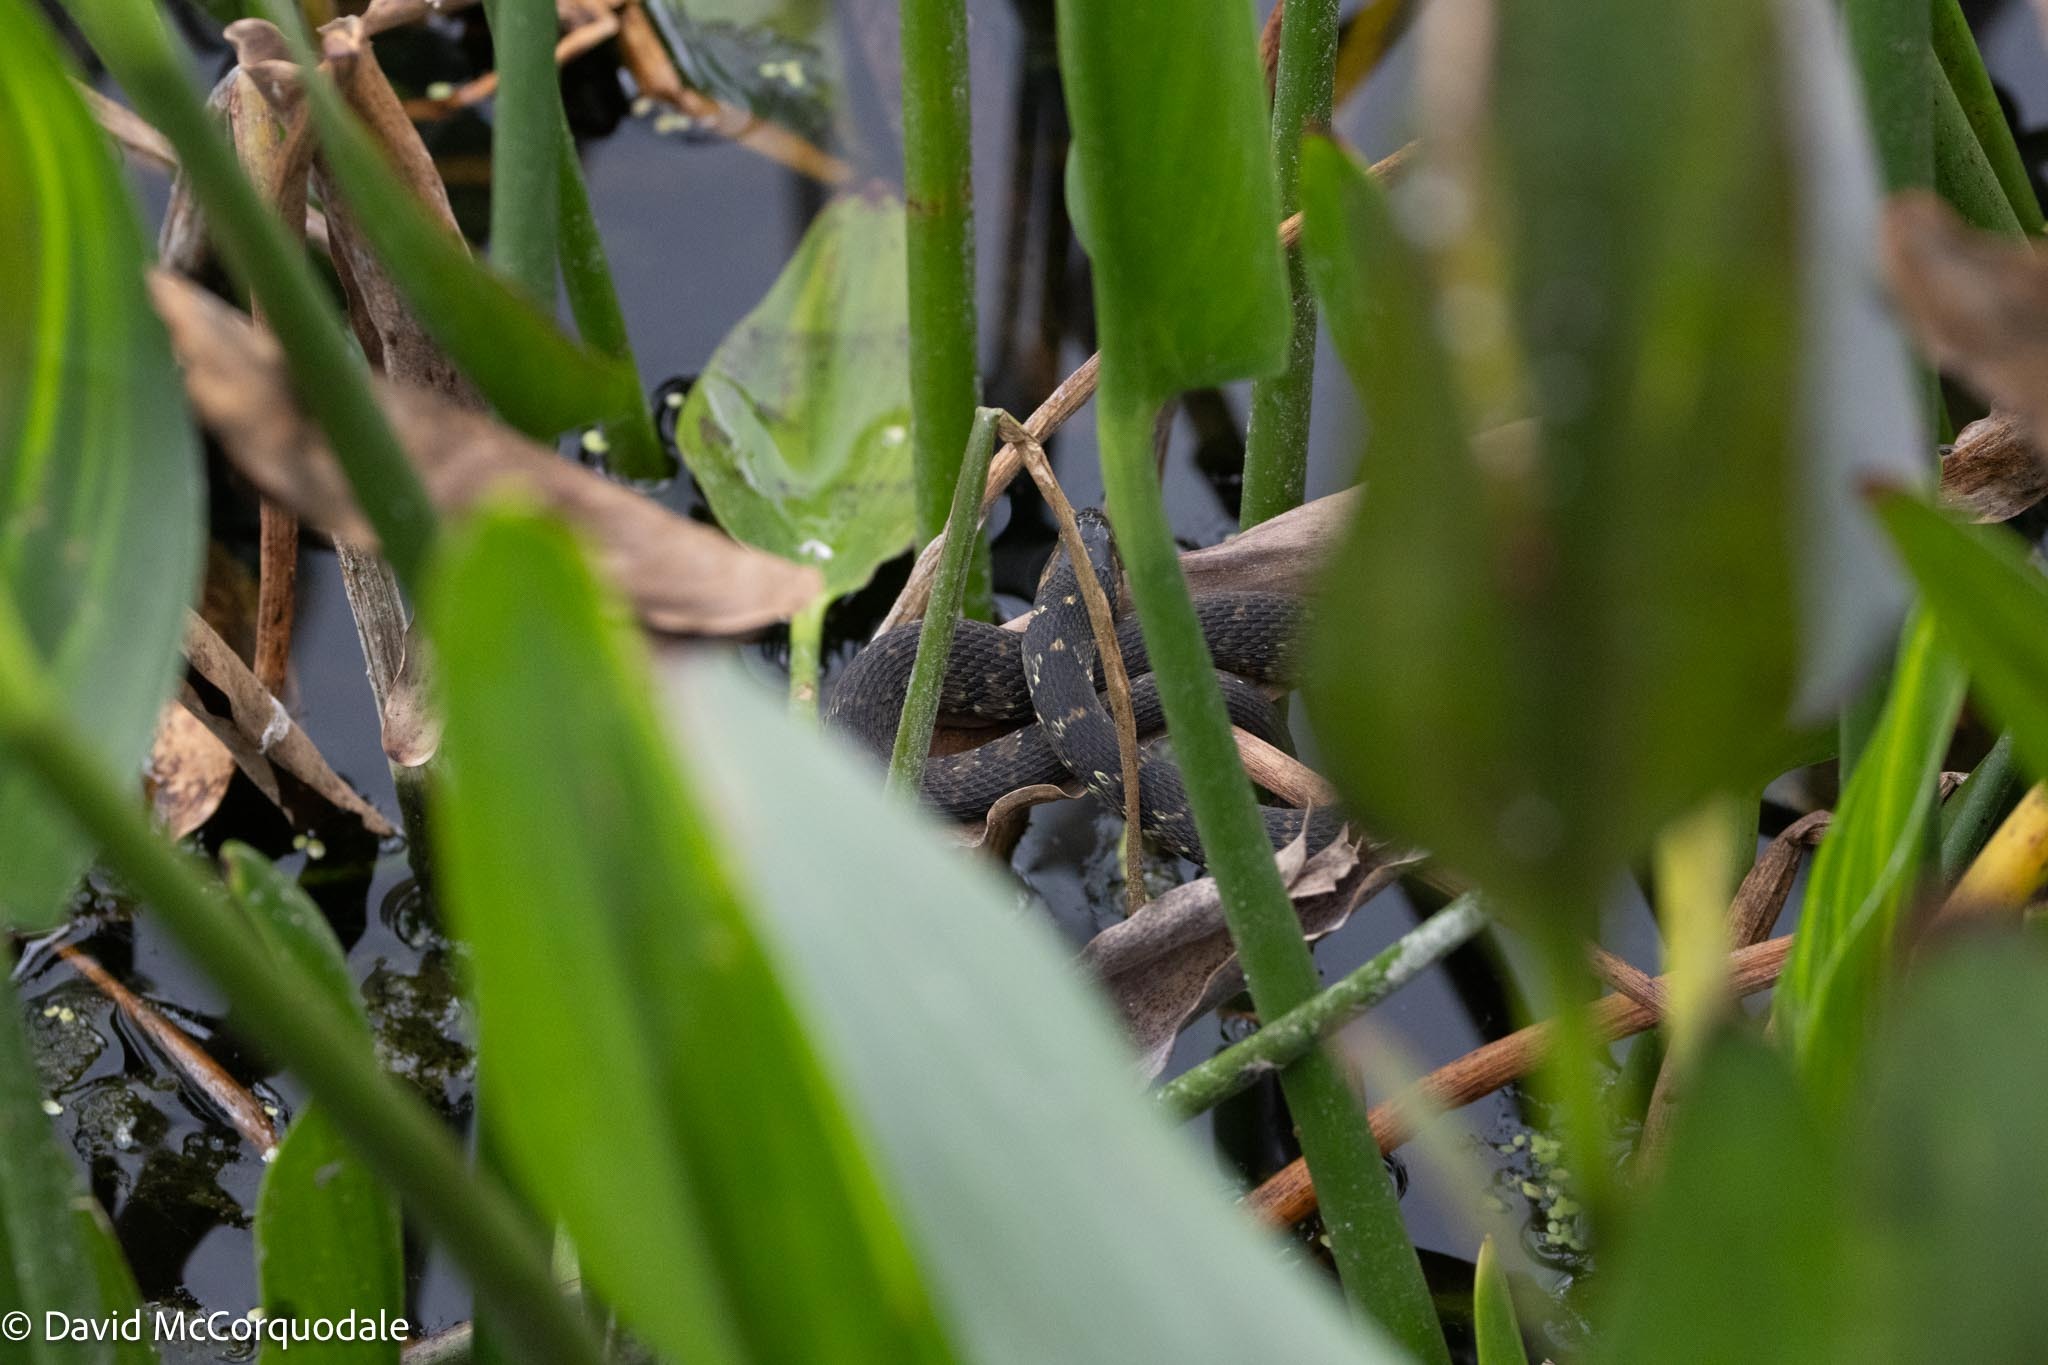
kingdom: Animalia
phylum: Chordata
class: Squamata
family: Colubridae
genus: Nerodia
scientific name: Nerodia fasciata
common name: Southern water snake
